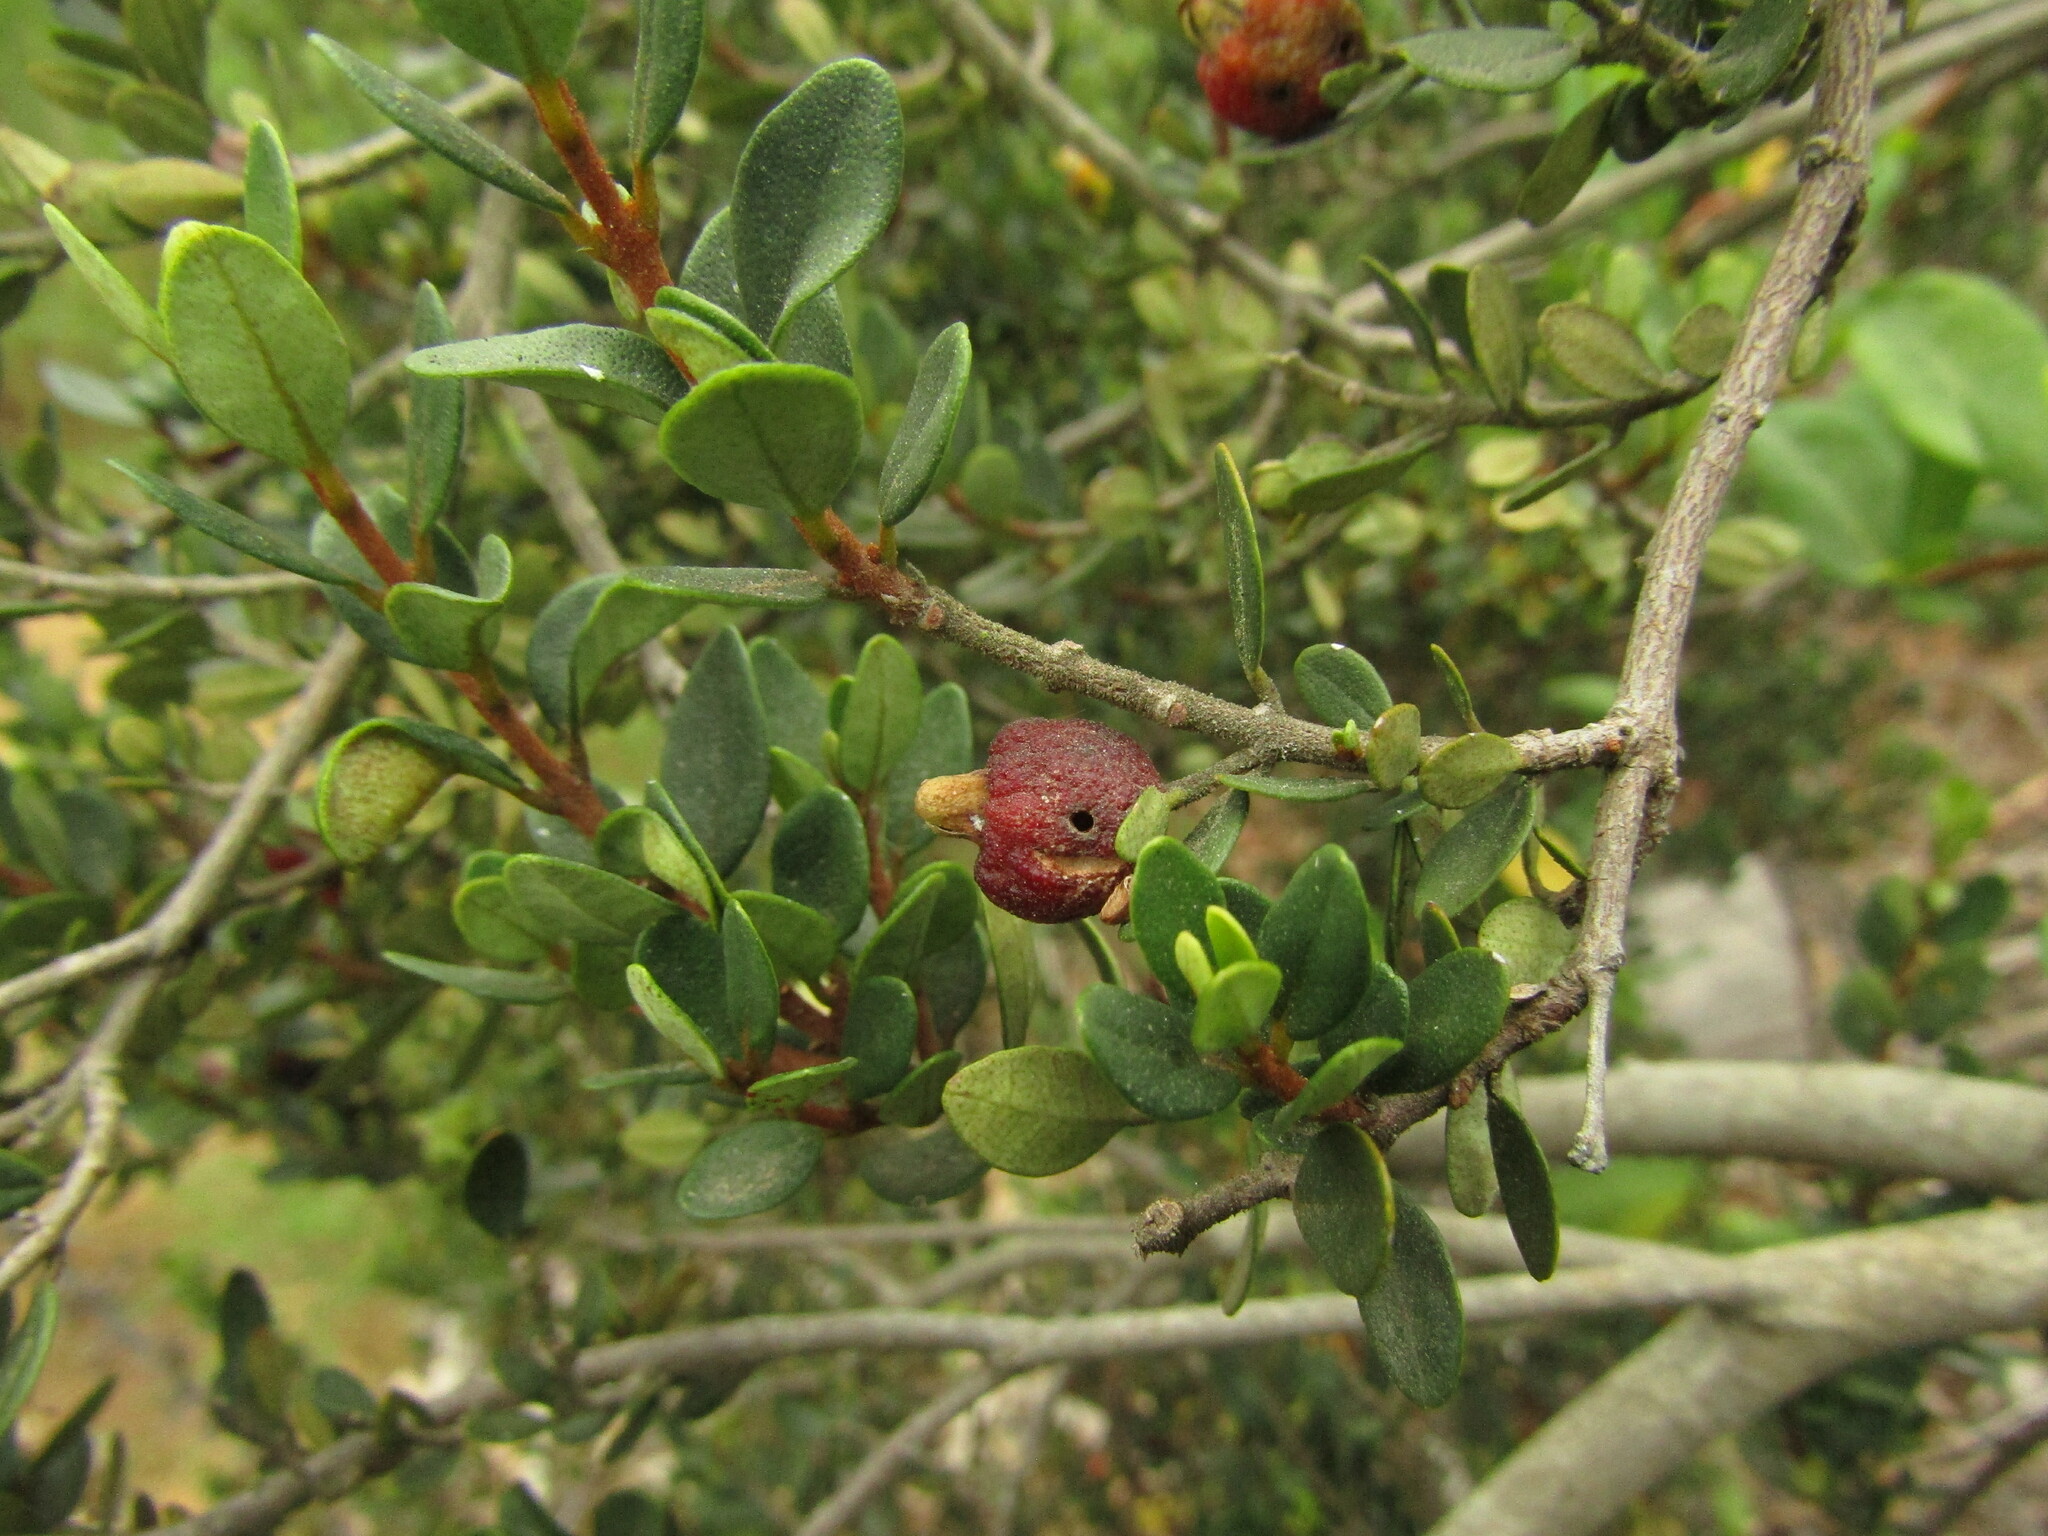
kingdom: Plantae
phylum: Tracheophyta
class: Magnoliopsida
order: Myrtales
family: Myrtaceae
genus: Myrceugenia
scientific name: Myrceugenia obtusa
